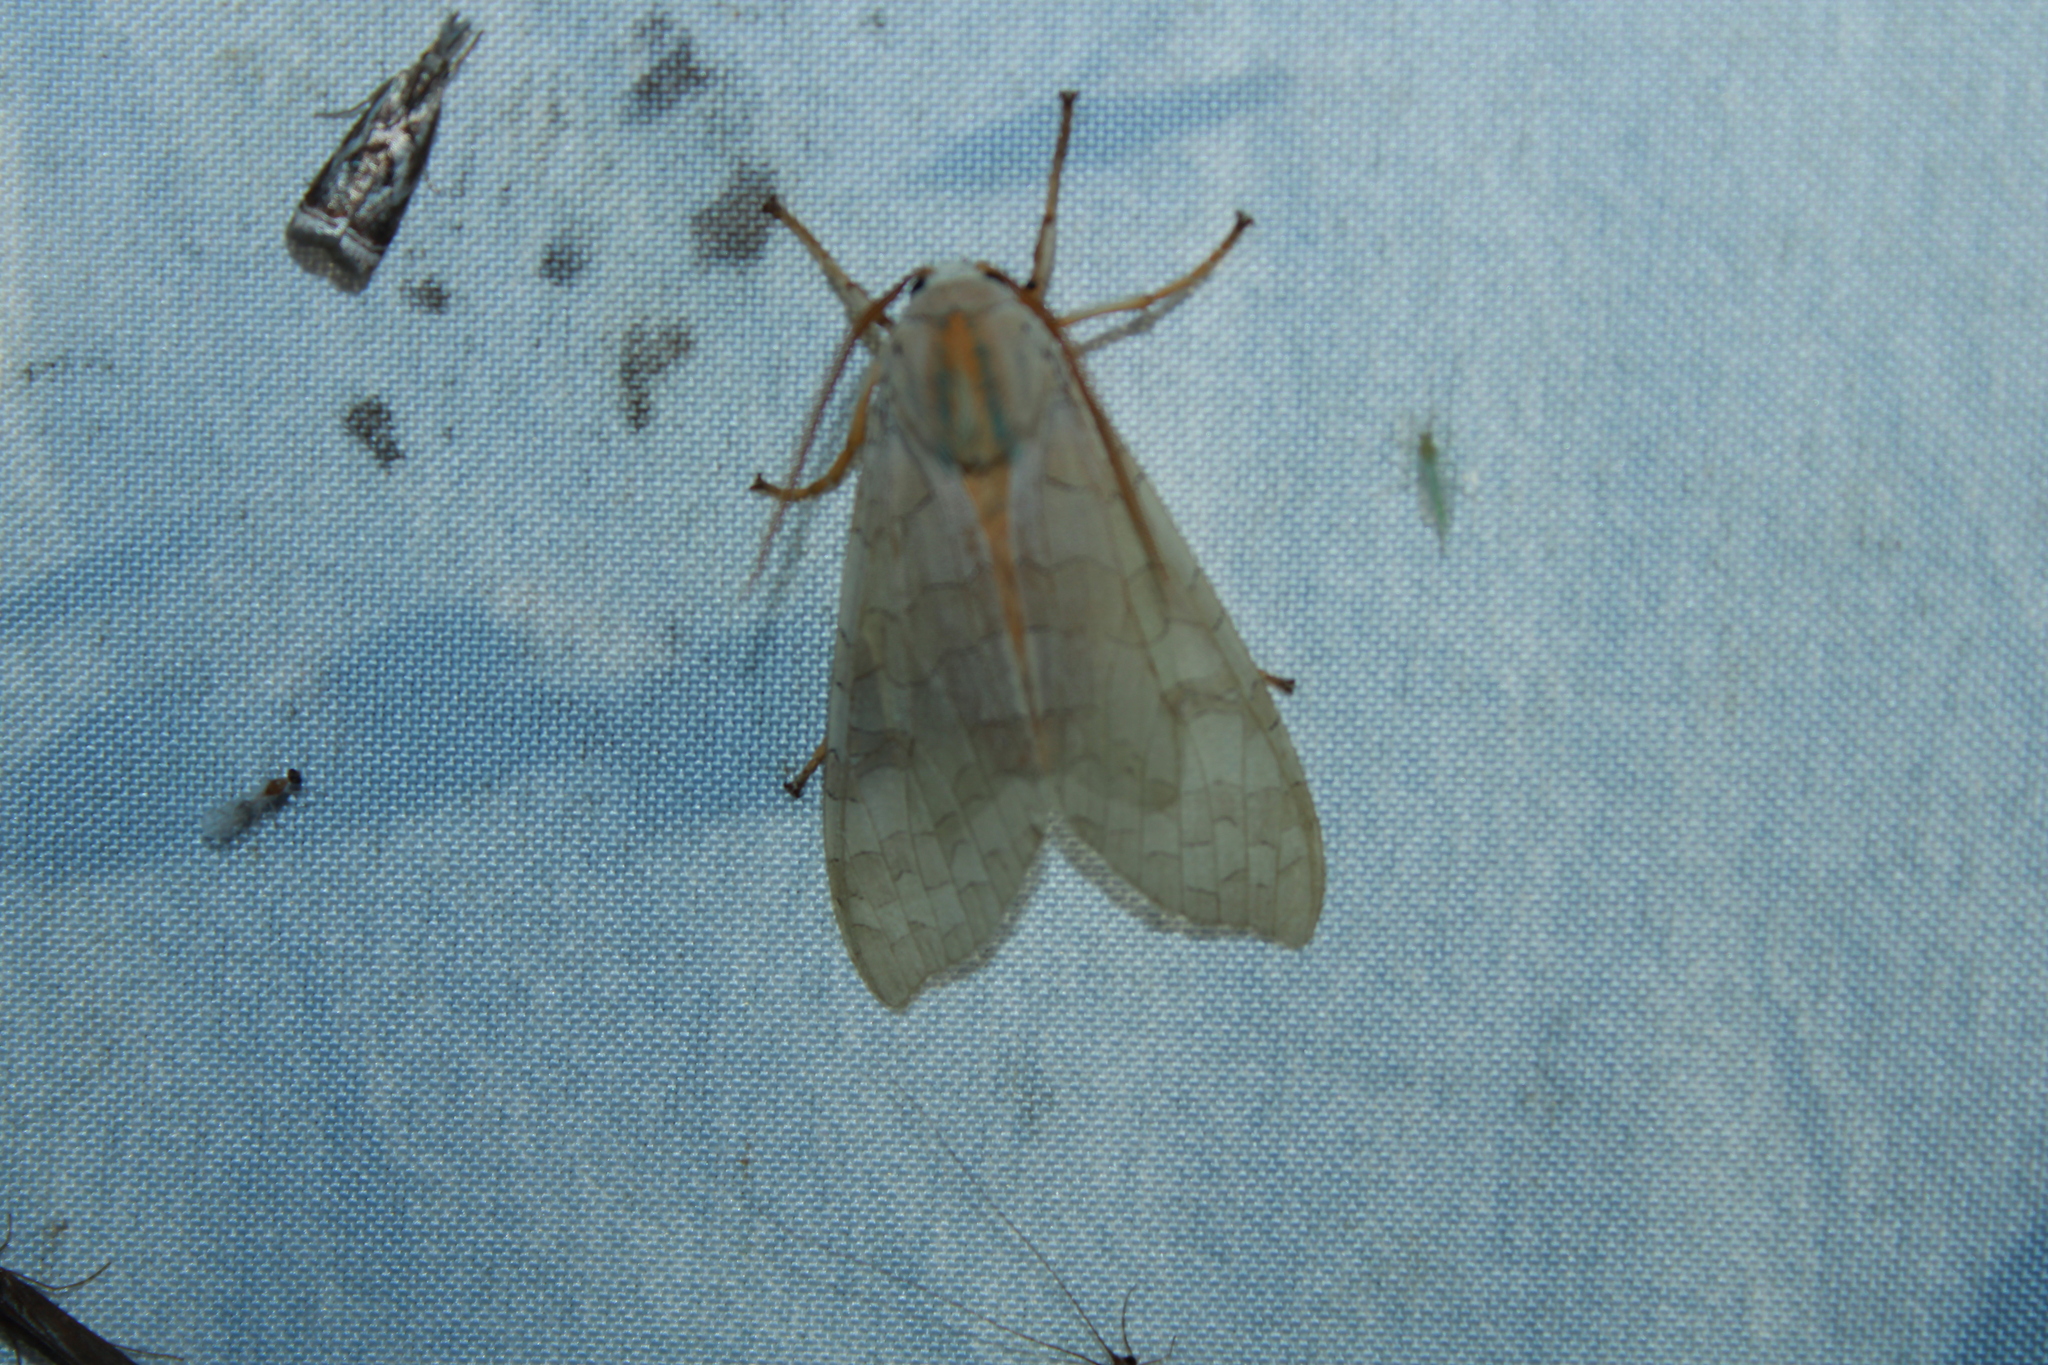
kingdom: Animalia
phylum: Arthropoda
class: Insecta
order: Lepidoptera
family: Erebidae
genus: Halysidota
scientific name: Halysidota
